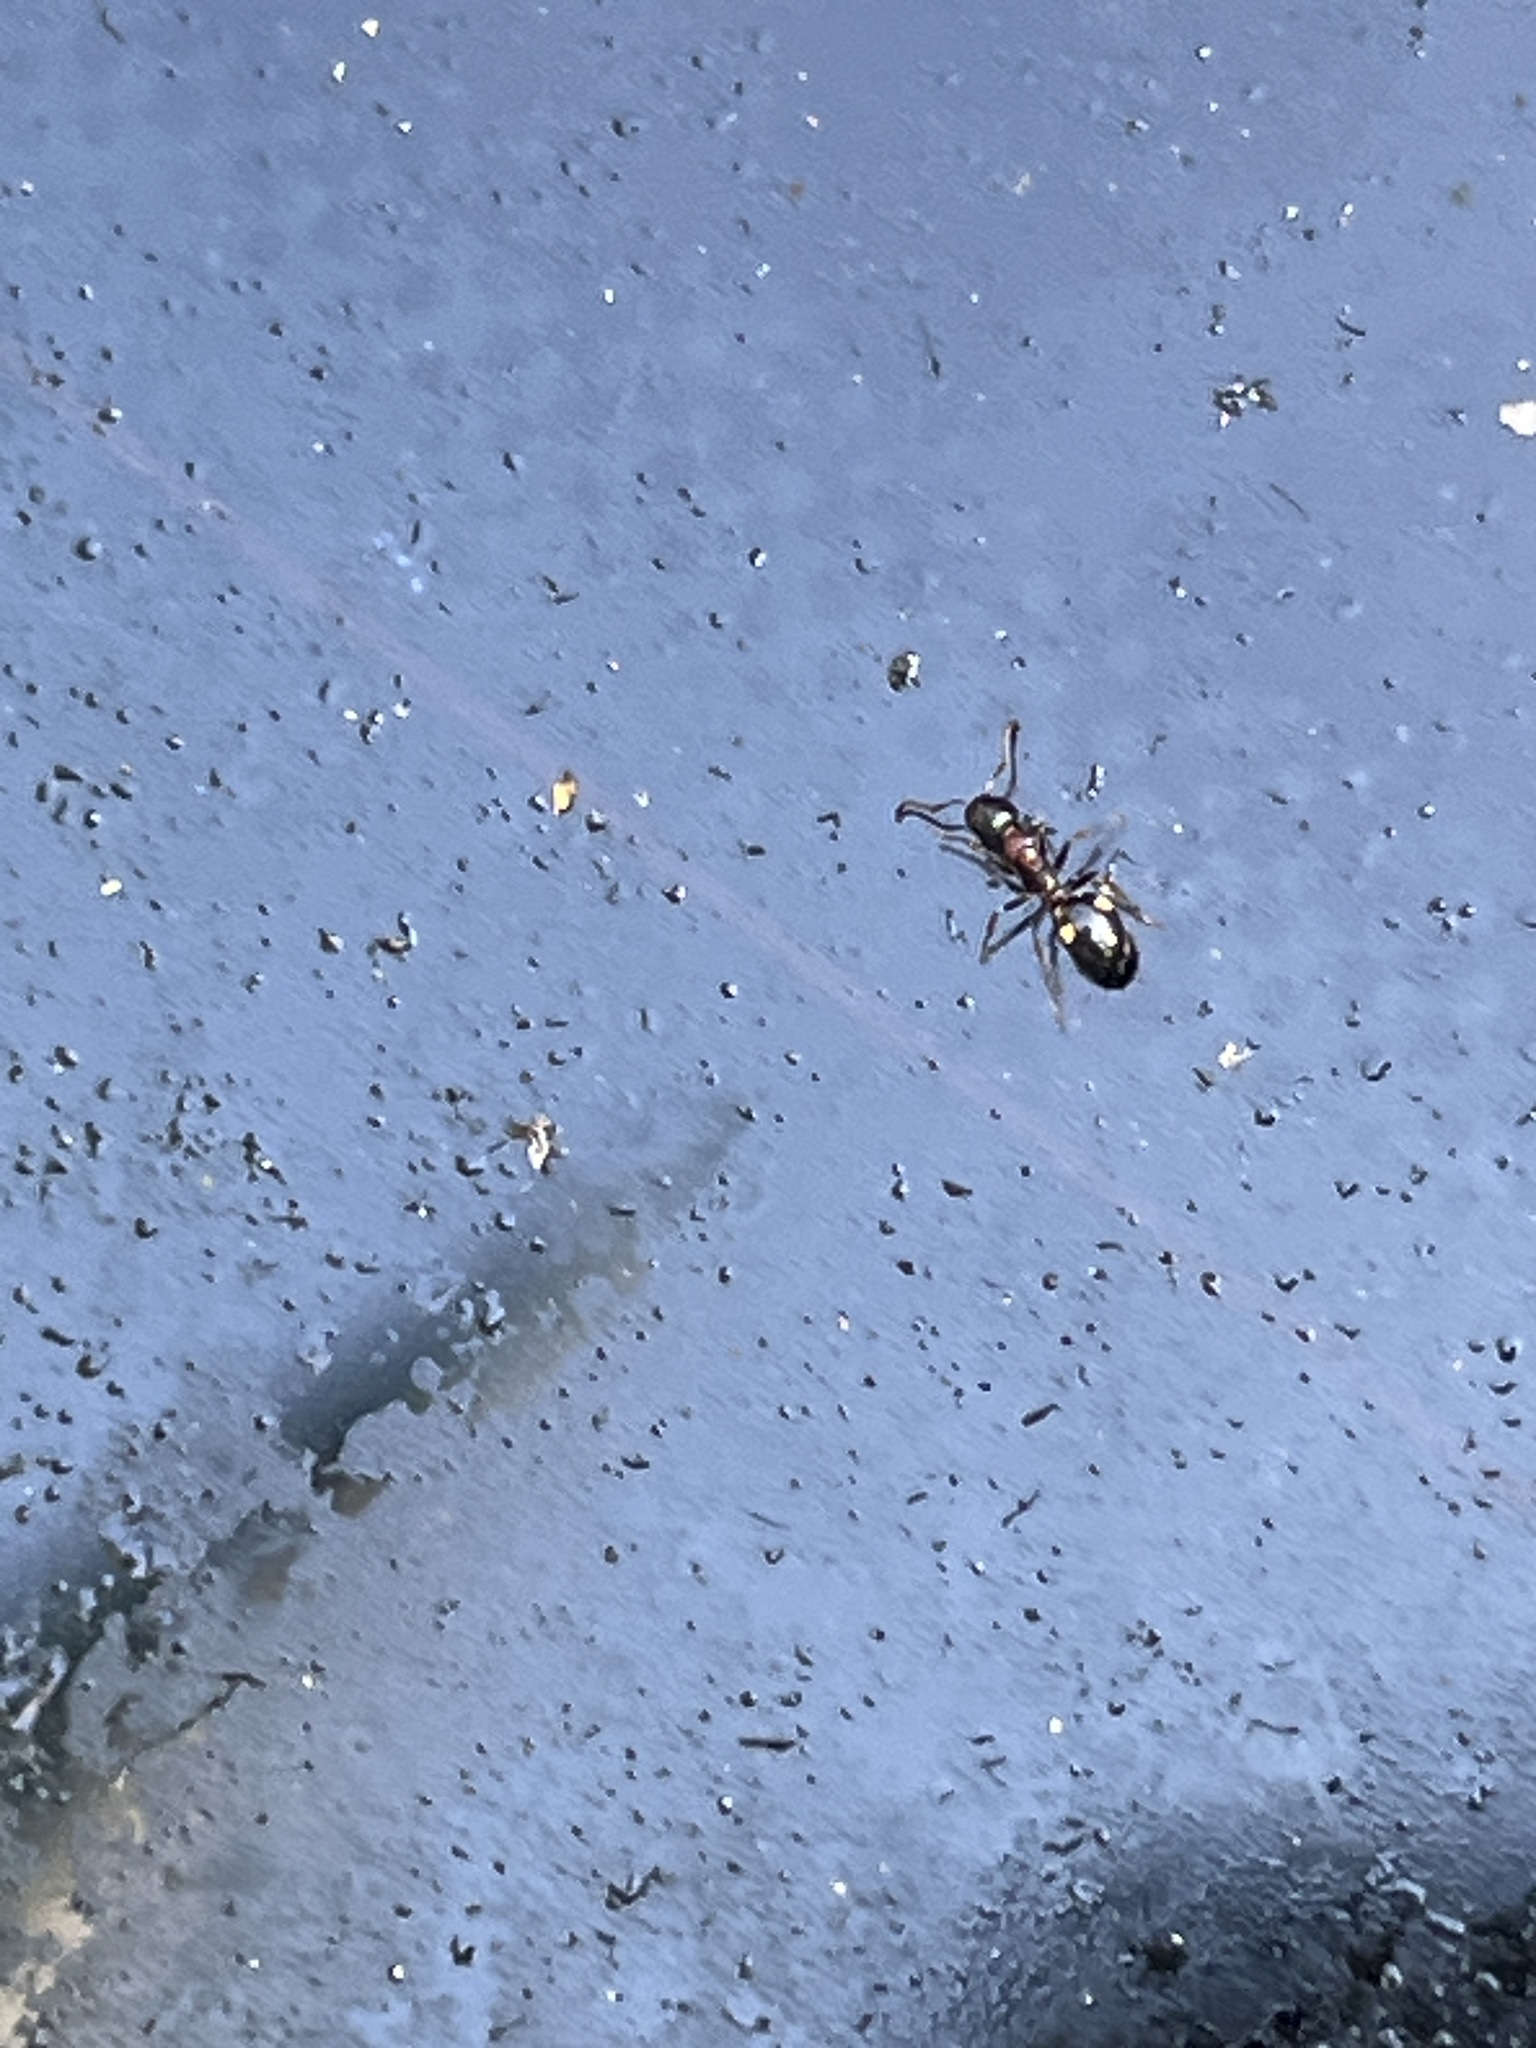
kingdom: Animalia
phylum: Arthropoda
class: Insecta
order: Hymenoptera
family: Formicidae
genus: Dolichoderus
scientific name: Dolichoderus quadripunctatus
